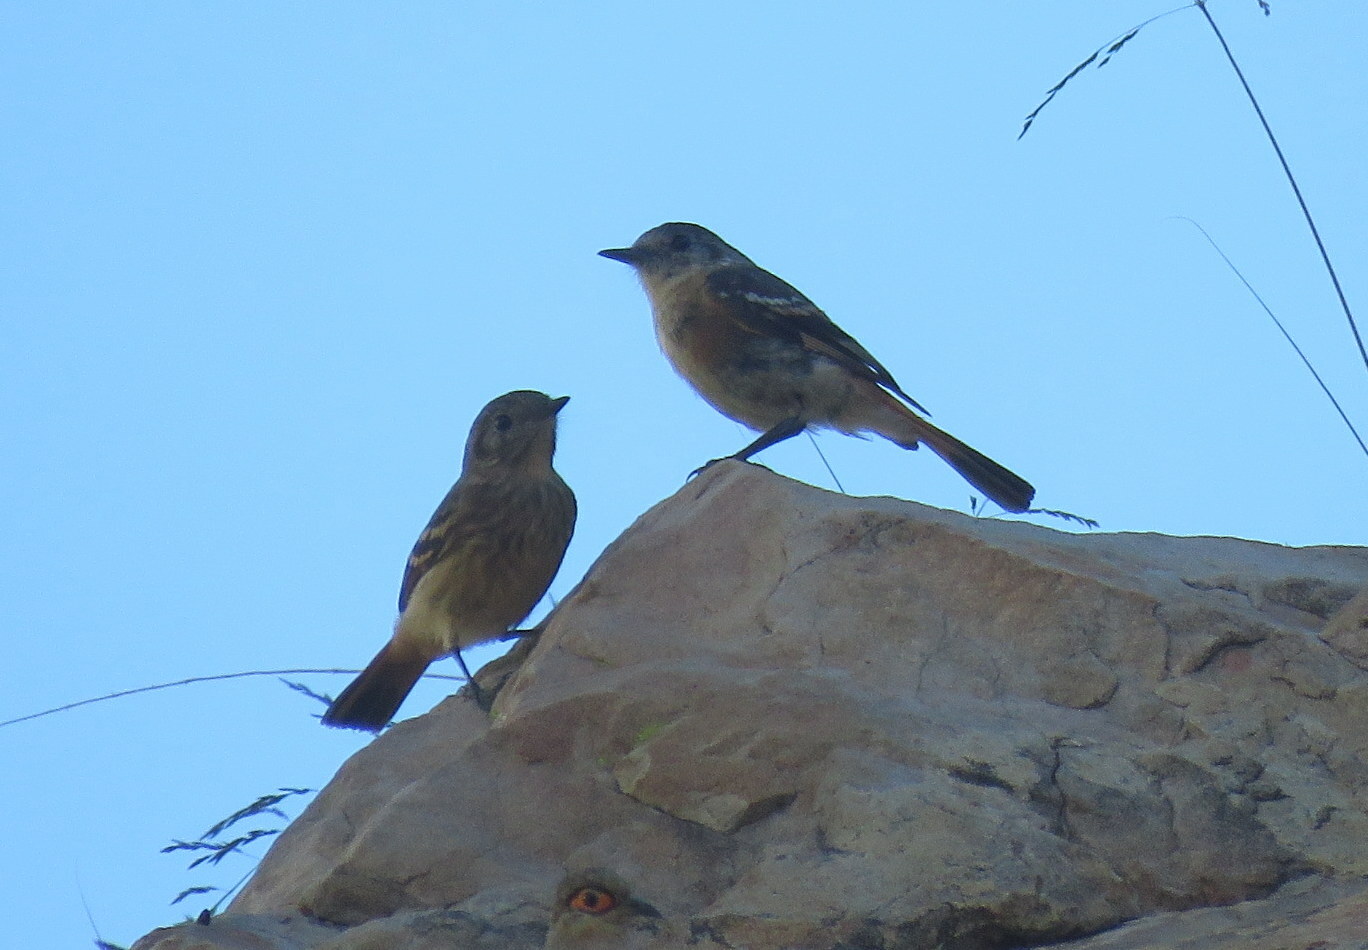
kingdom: Animalia
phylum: Chordata
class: Aves
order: Passeriformes
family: Tyrannidae
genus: Knipolegus
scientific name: Knipolegus aterrimus
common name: White-winged black tyrant
